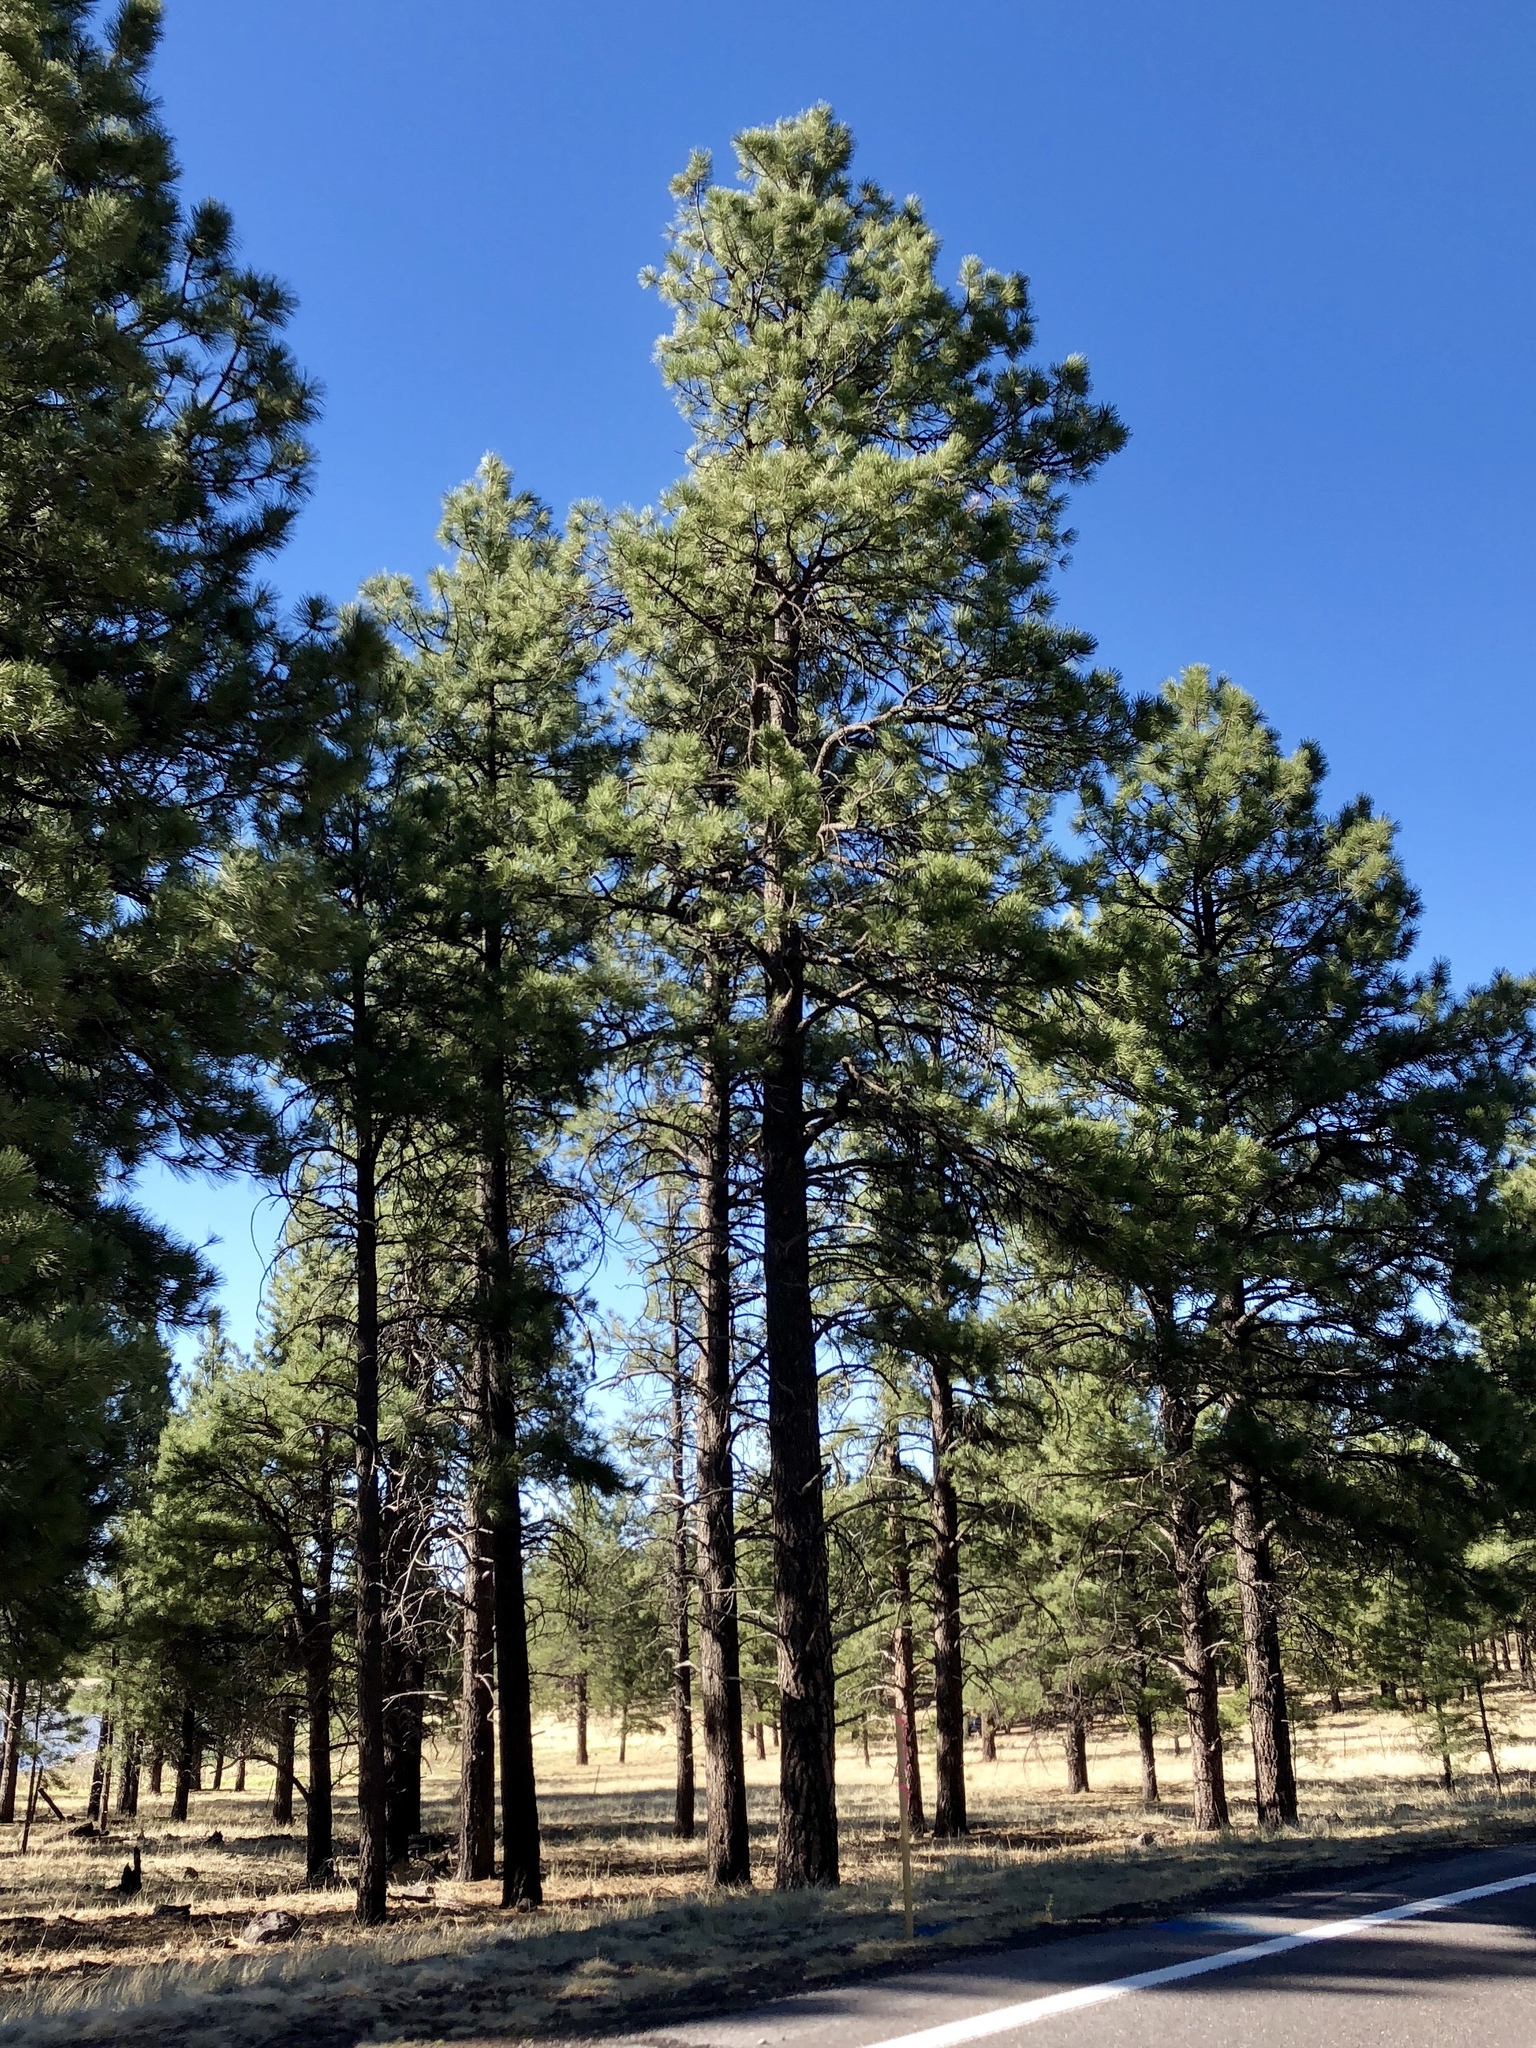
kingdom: Plantae
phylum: Tracheophyta
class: Pinopsida
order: Pinales
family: Pinaceae
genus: Pinus
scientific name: Pinus ponderosa
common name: Western yellow-pine
